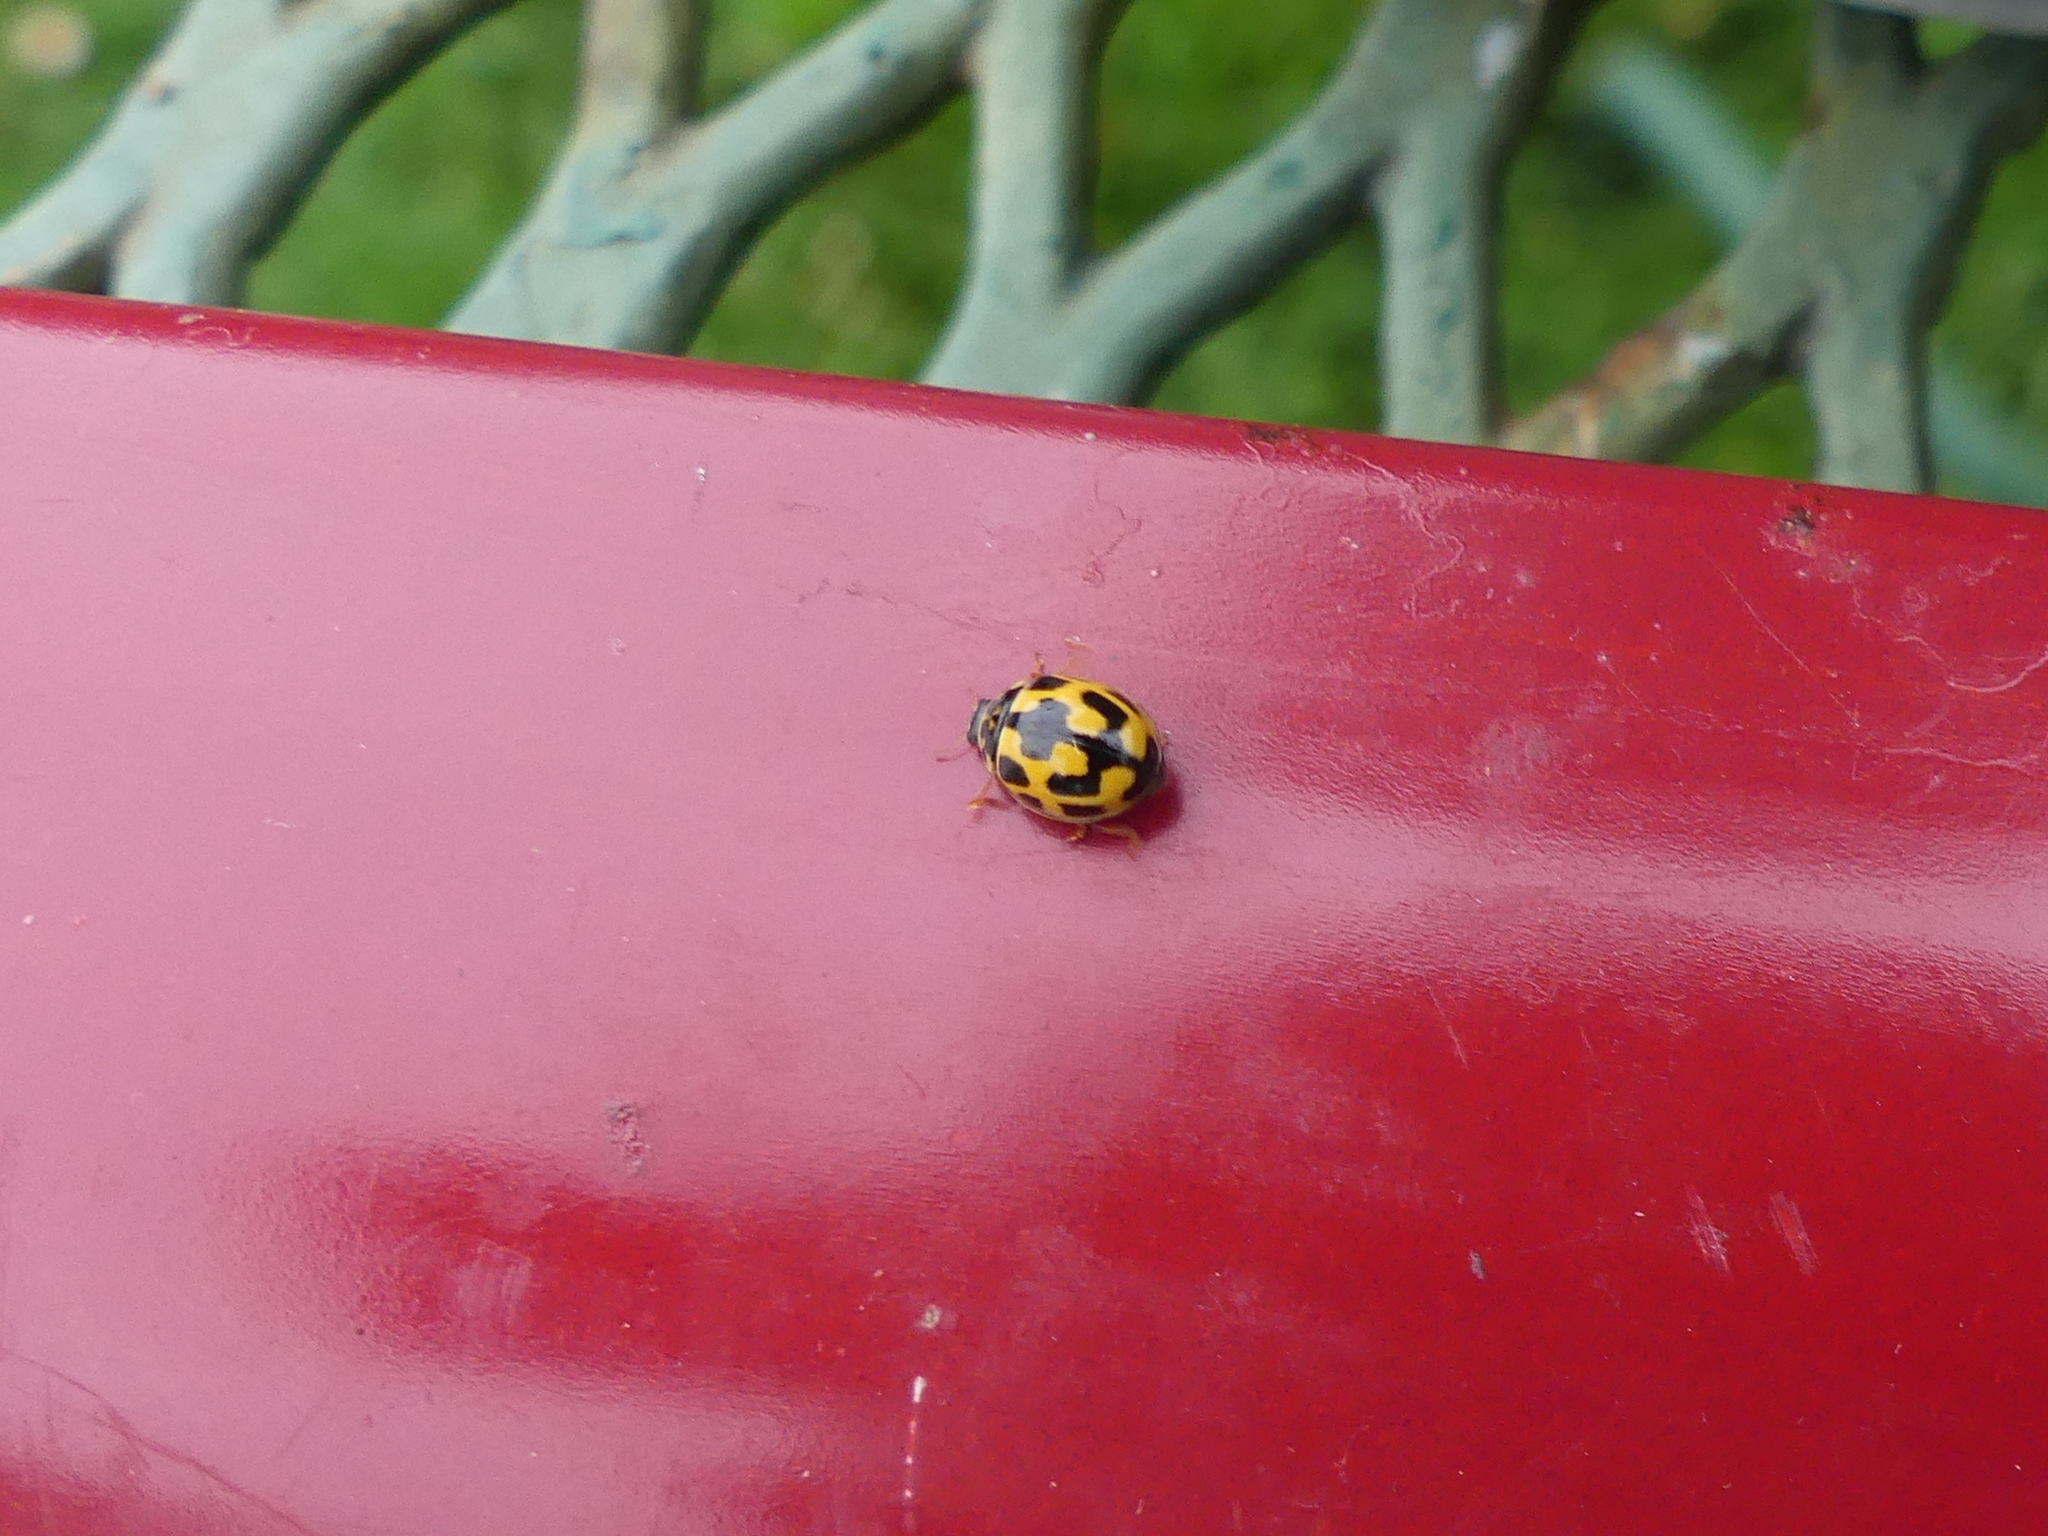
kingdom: Animalia
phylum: Arthropoda
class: Insecta
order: Coleoptera
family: Coccinellidae
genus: Propylaea
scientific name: Propylaea quatuordecimpunctata
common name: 14-spotted ladybird beetle
